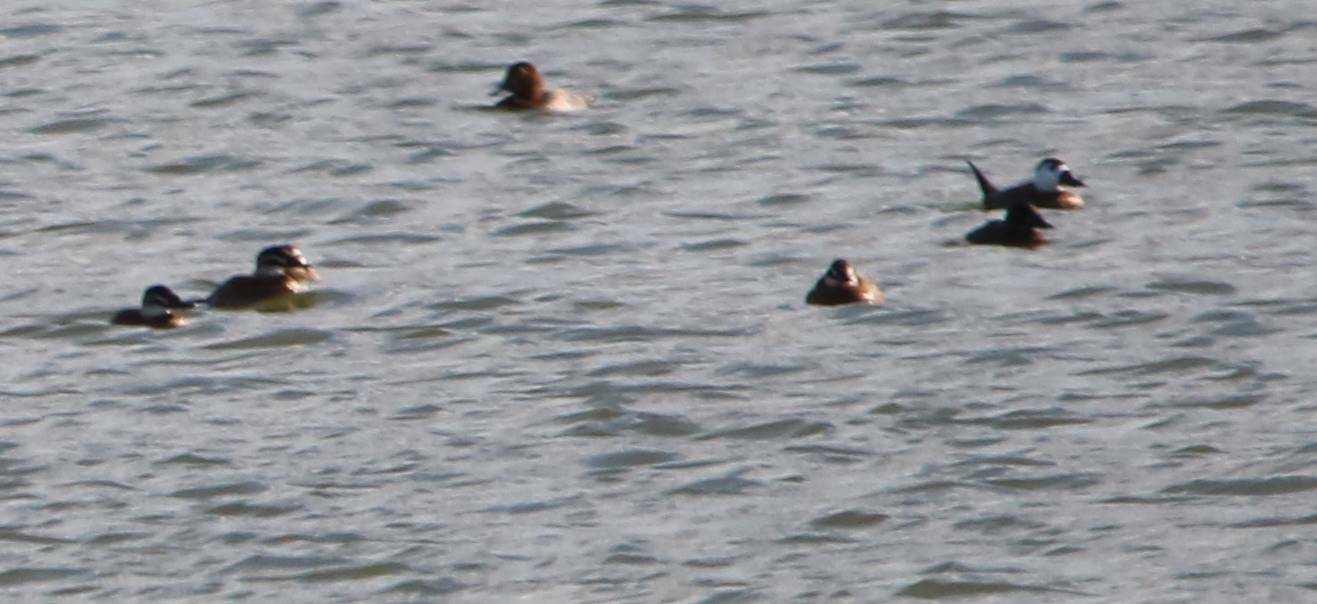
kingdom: Animalia
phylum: Chordata
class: Aves
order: Anseriformes
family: Anatidae
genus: Oxyura
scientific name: Oxyura leucocephala
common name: White-headed duck
